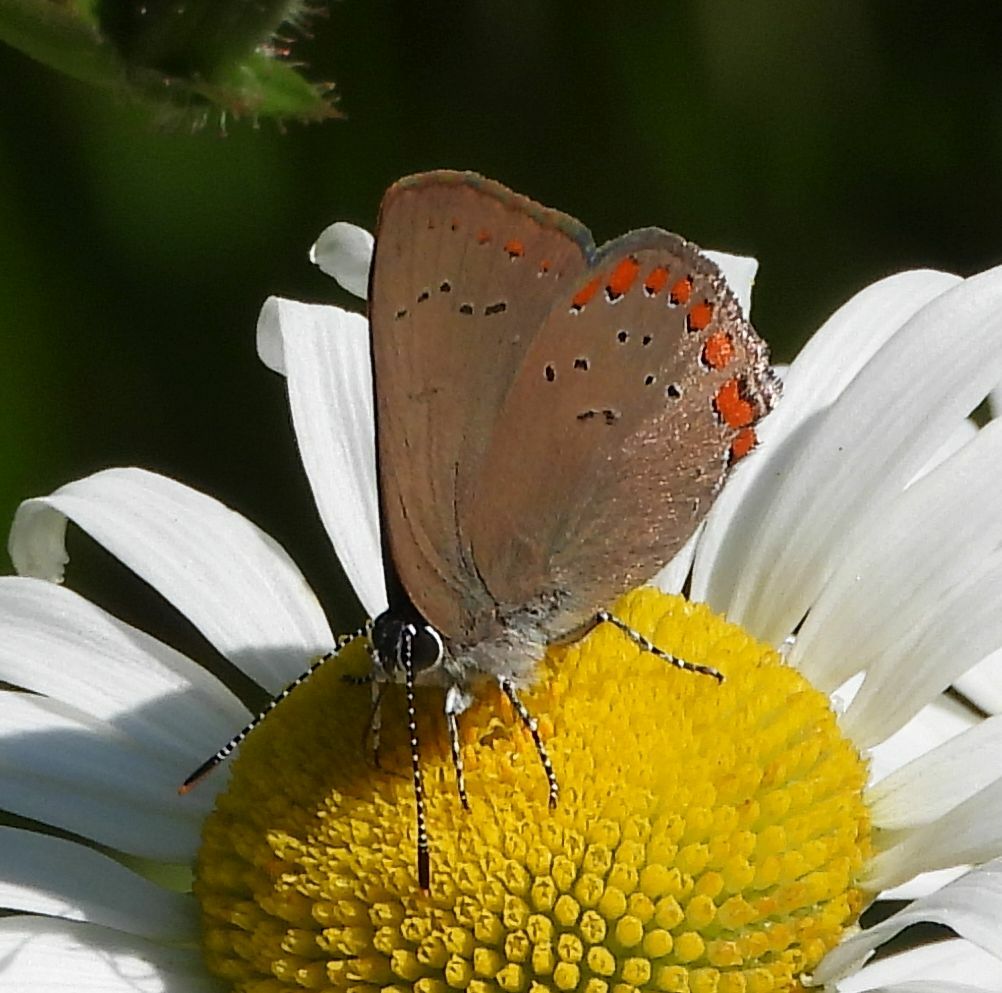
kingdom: Animalia
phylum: Arthropoda
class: Insecta
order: Lepidoptera
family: Lycaenidae
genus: Harkenclenus
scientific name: Harkenclenus titus
